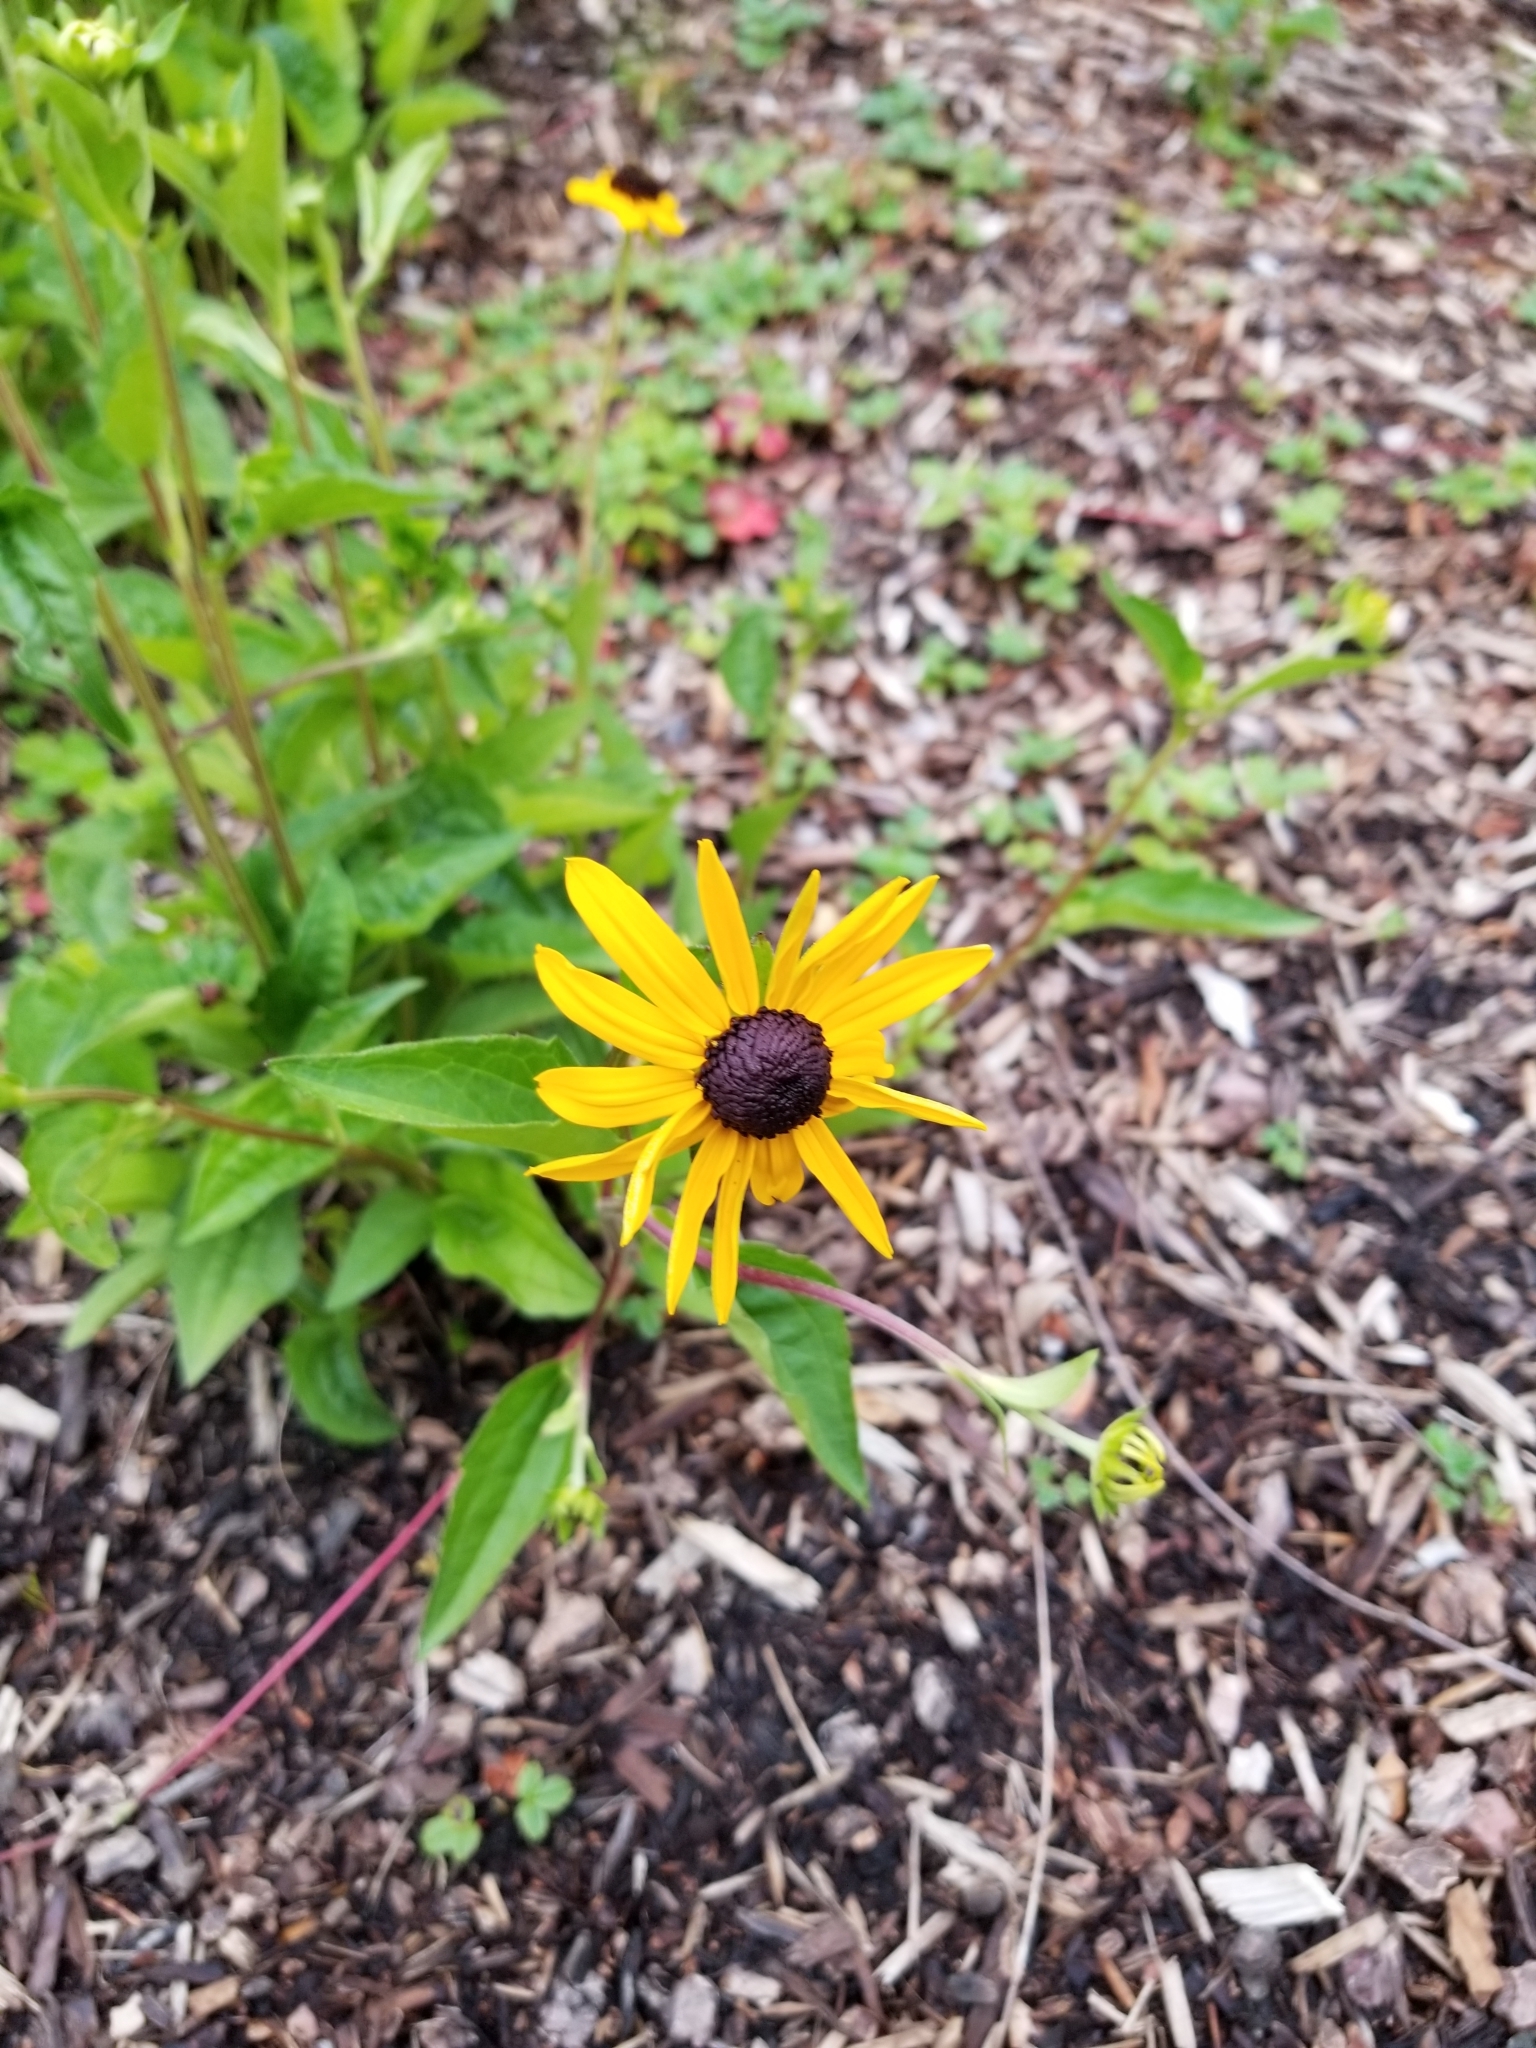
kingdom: Plantae
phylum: Tracheophyta
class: Magnoliopsida
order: Asterales
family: Asteraceae
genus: Rudbeckia
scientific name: Rudbeckia hirta
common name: Black-eyed-susan
